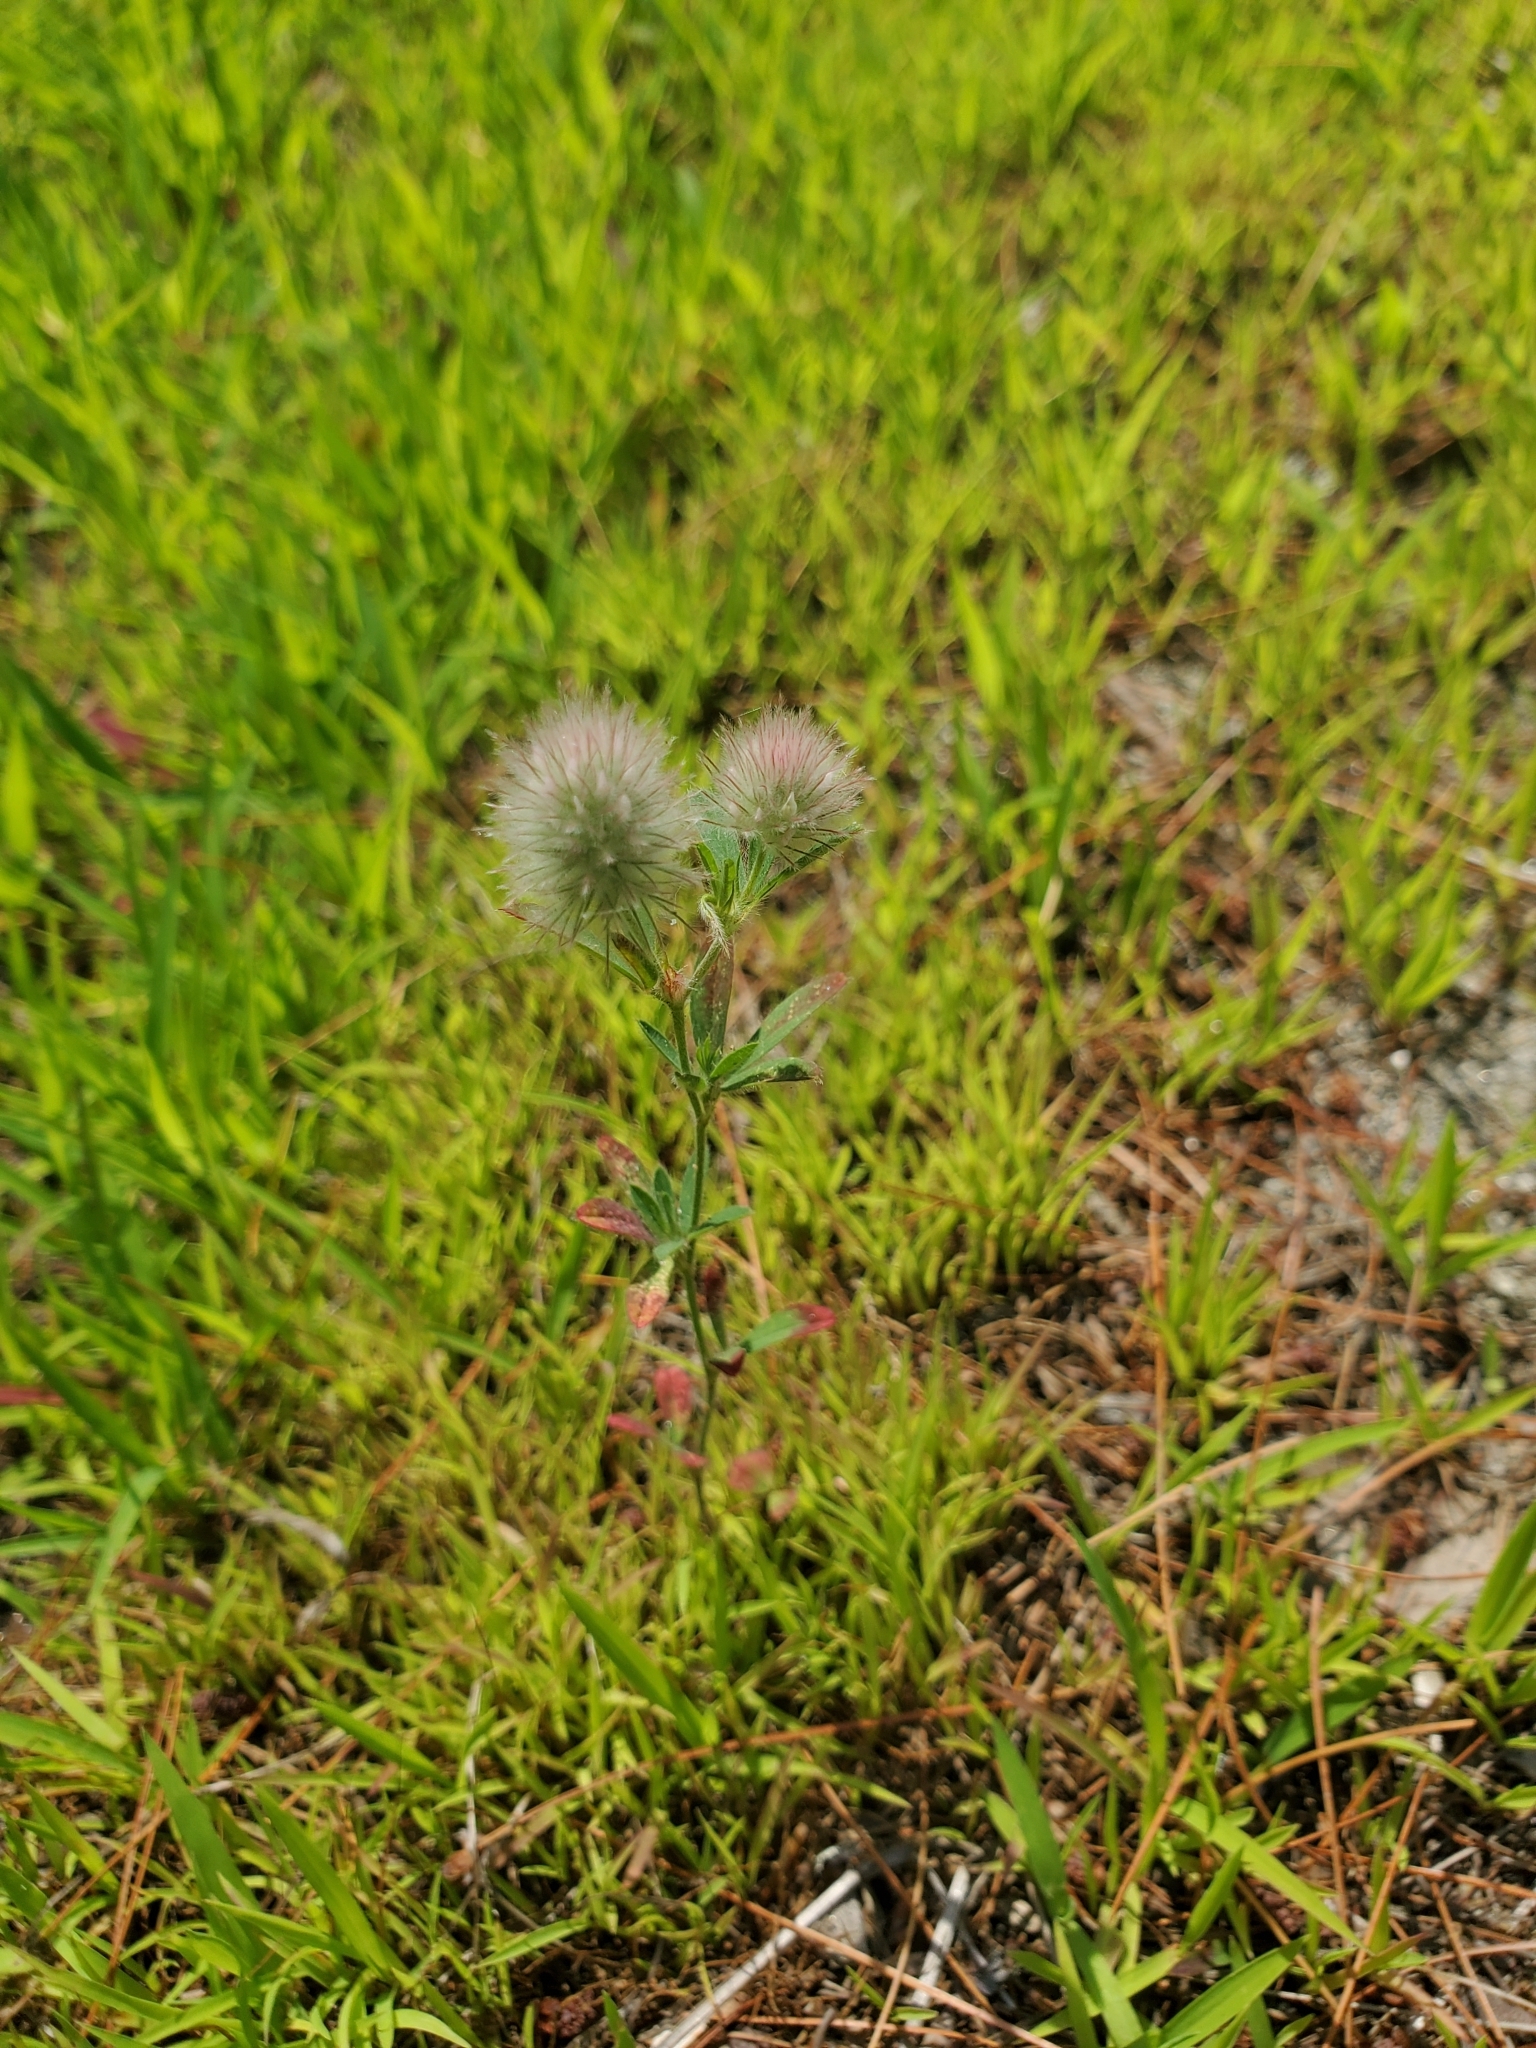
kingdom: Plantae
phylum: Tracheophyta
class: Magnoliopsida
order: Fabales
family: Fabaceae
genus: Trifolium
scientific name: Trifolium arvense
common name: Hare's-foot clover
